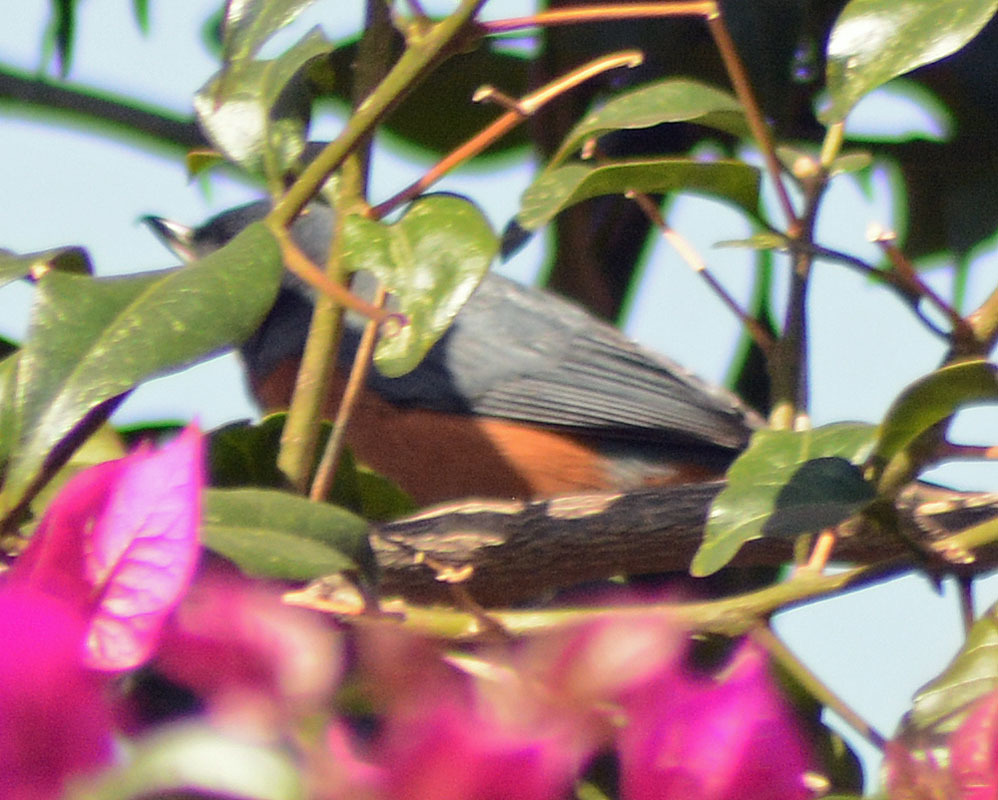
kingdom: Animalia
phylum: Chordata
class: Aves
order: Passeriformes
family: Thraupidae
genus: Diglossa
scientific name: Diglossa baritula
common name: Cinnamon-bellied flowerpiercer
